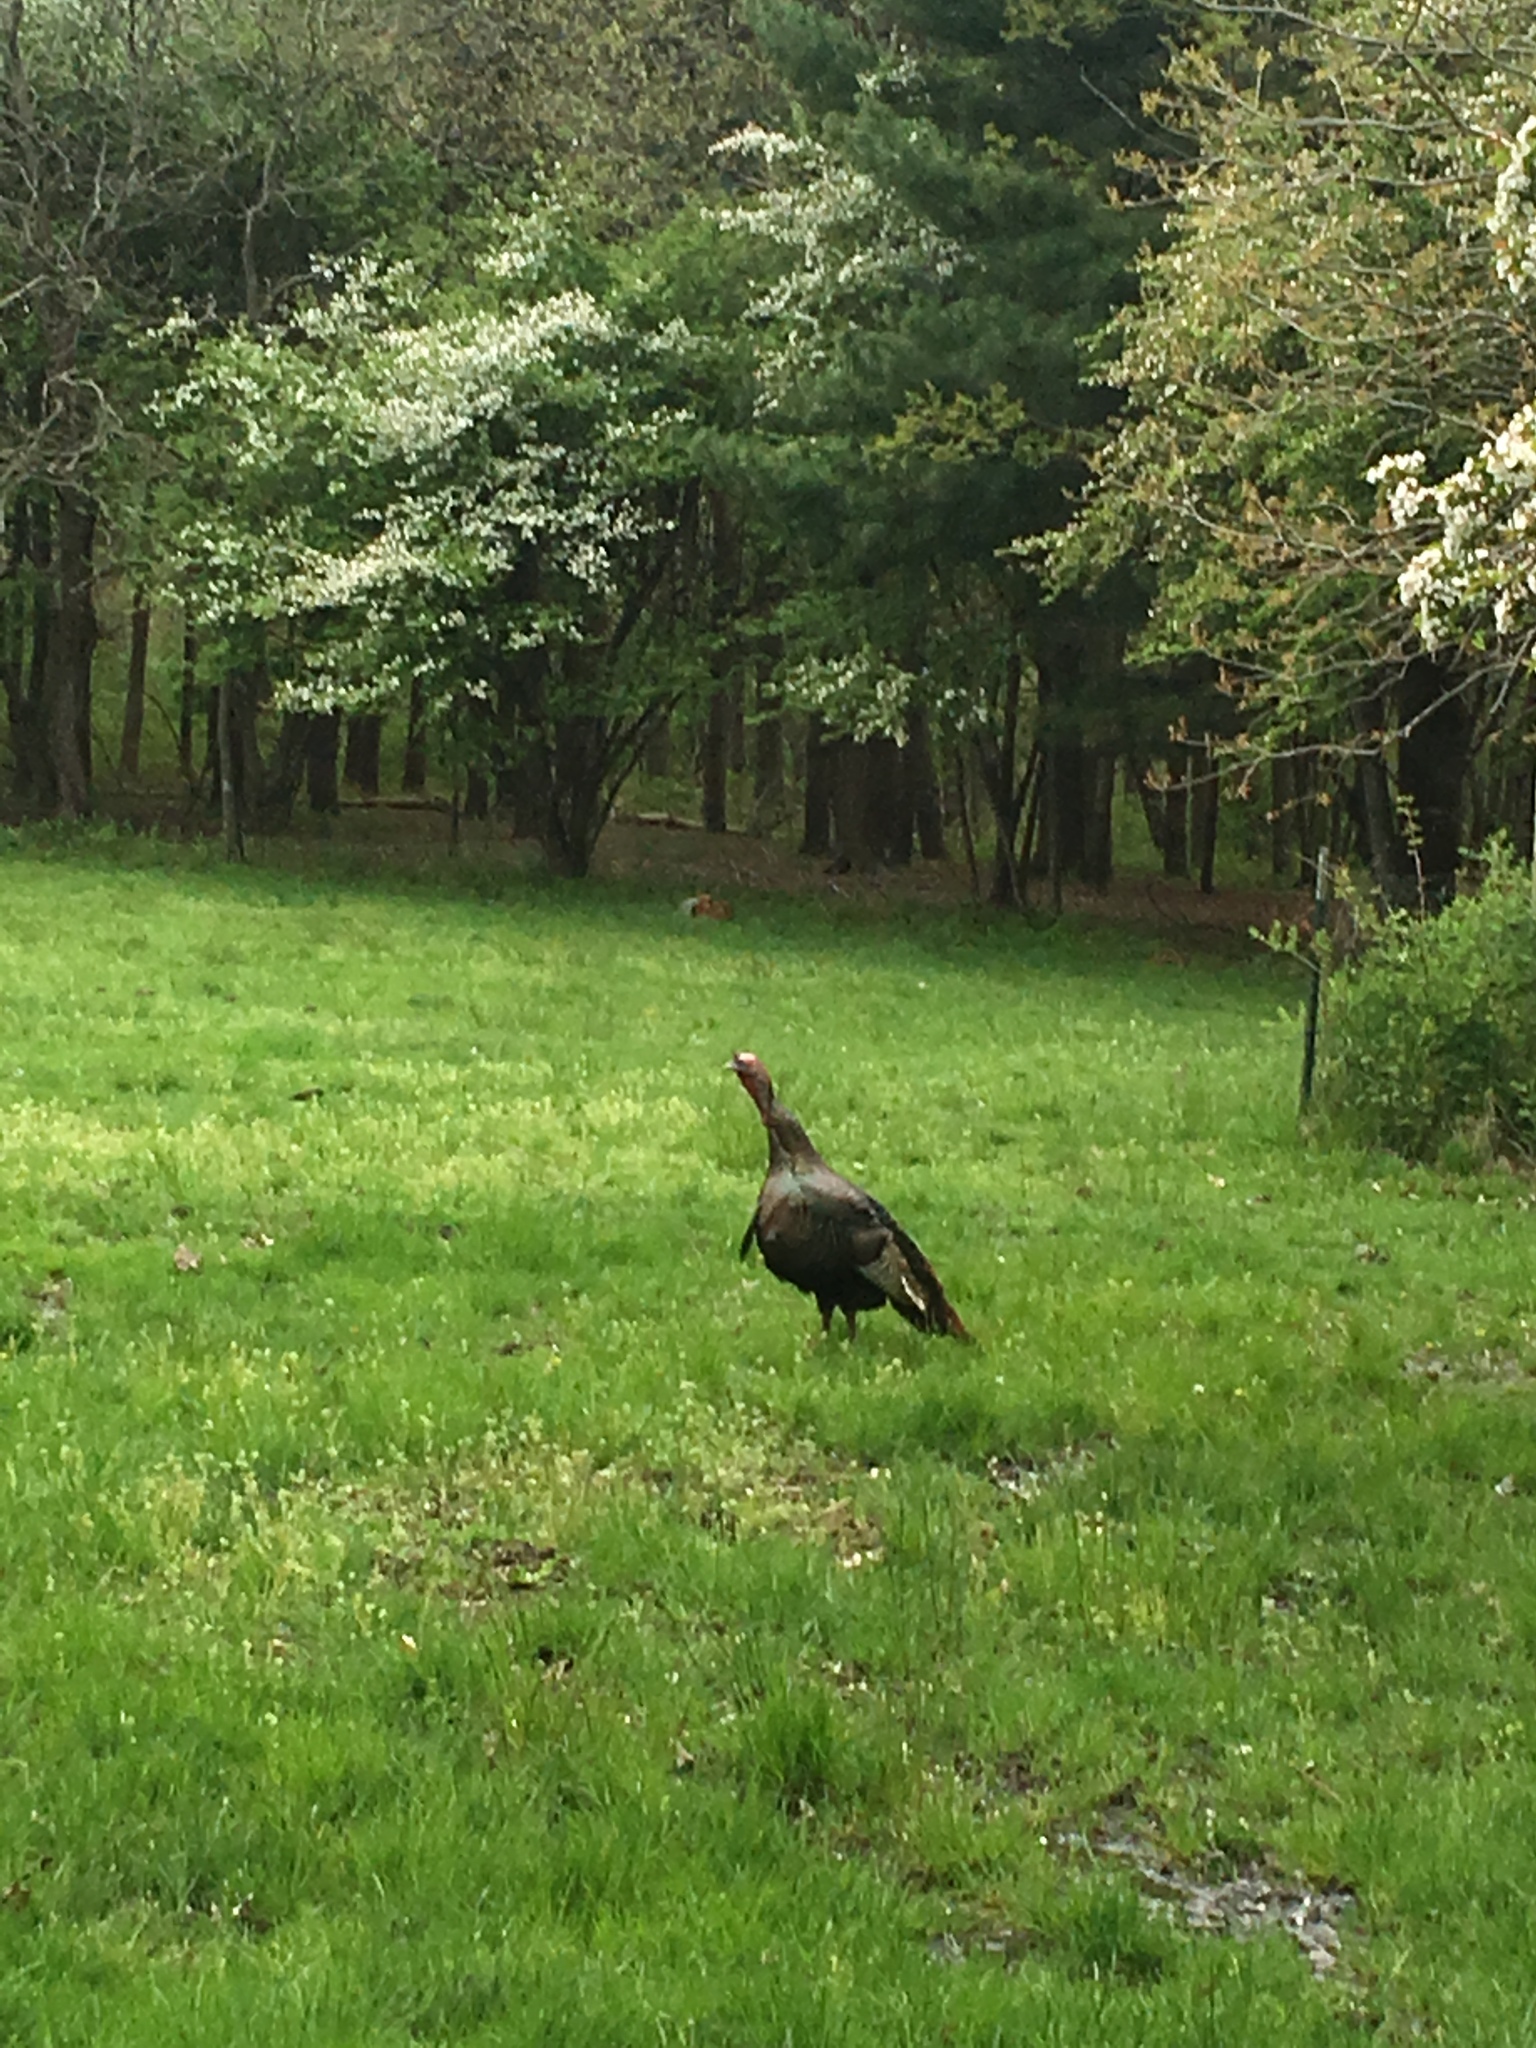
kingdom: Animalia
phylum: Chordata
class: Aves
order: Galliformes
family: Phasianidae
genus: Meleagris
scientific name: Meleagris gallopavo
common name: Wild turkey
